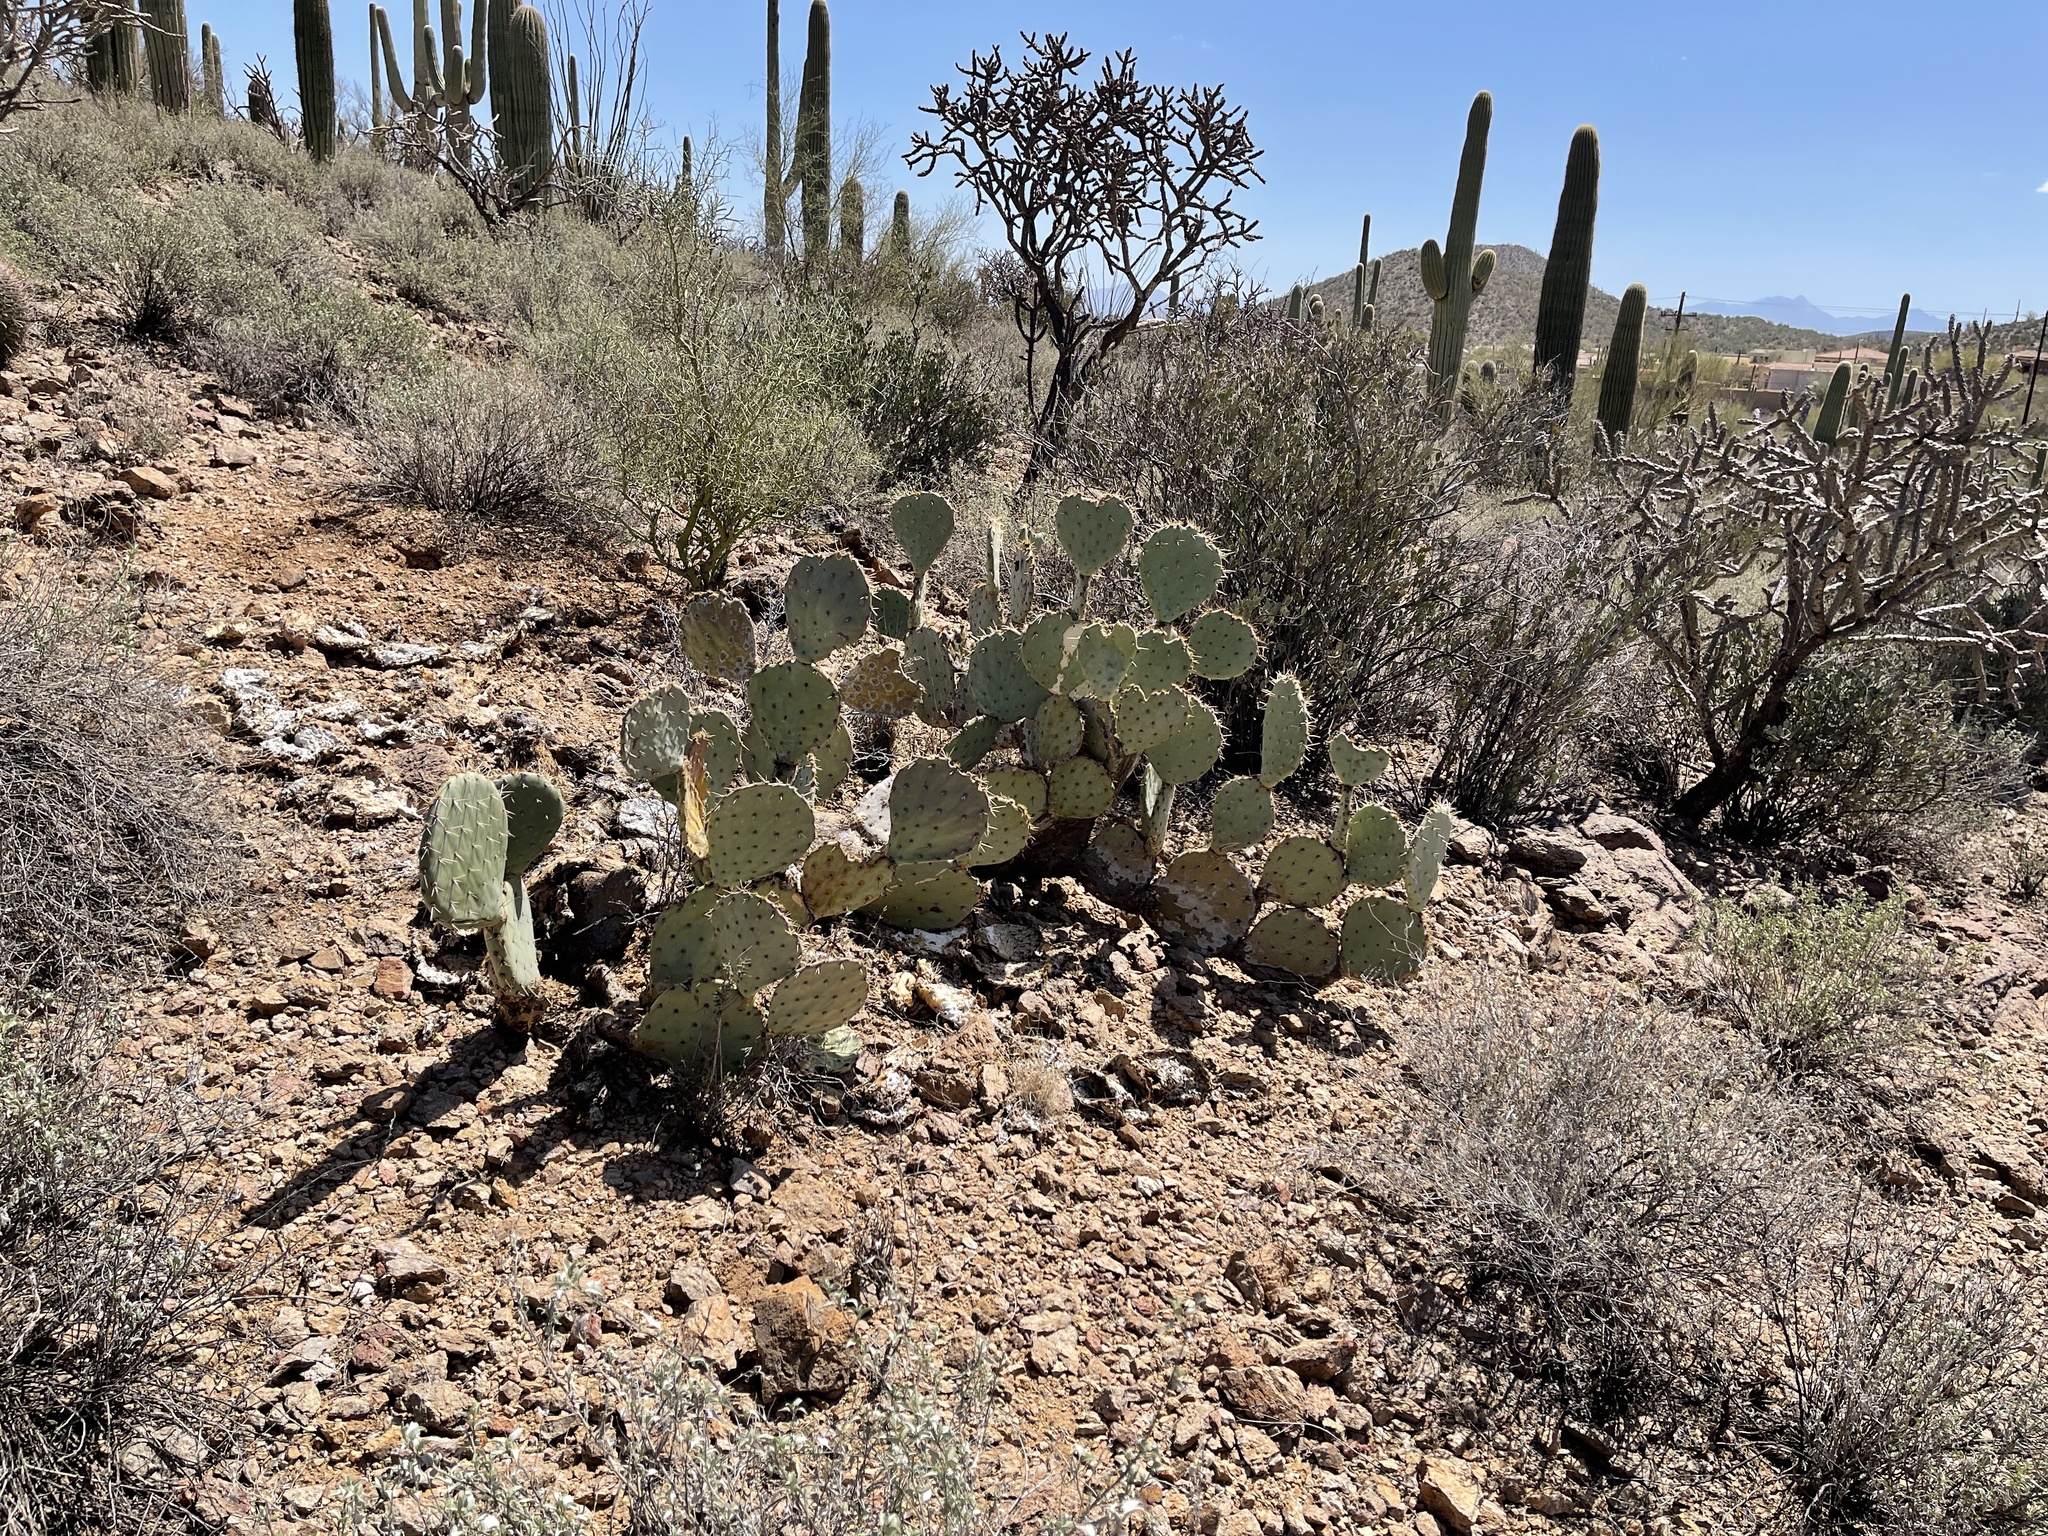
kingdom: Plantae
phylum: Tracheophyta
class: Magnoliopsida
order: Caryophyllales
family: Cactaceae
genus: Opuntia
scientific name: Opuntia engelmannii
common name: Cactus-apple
